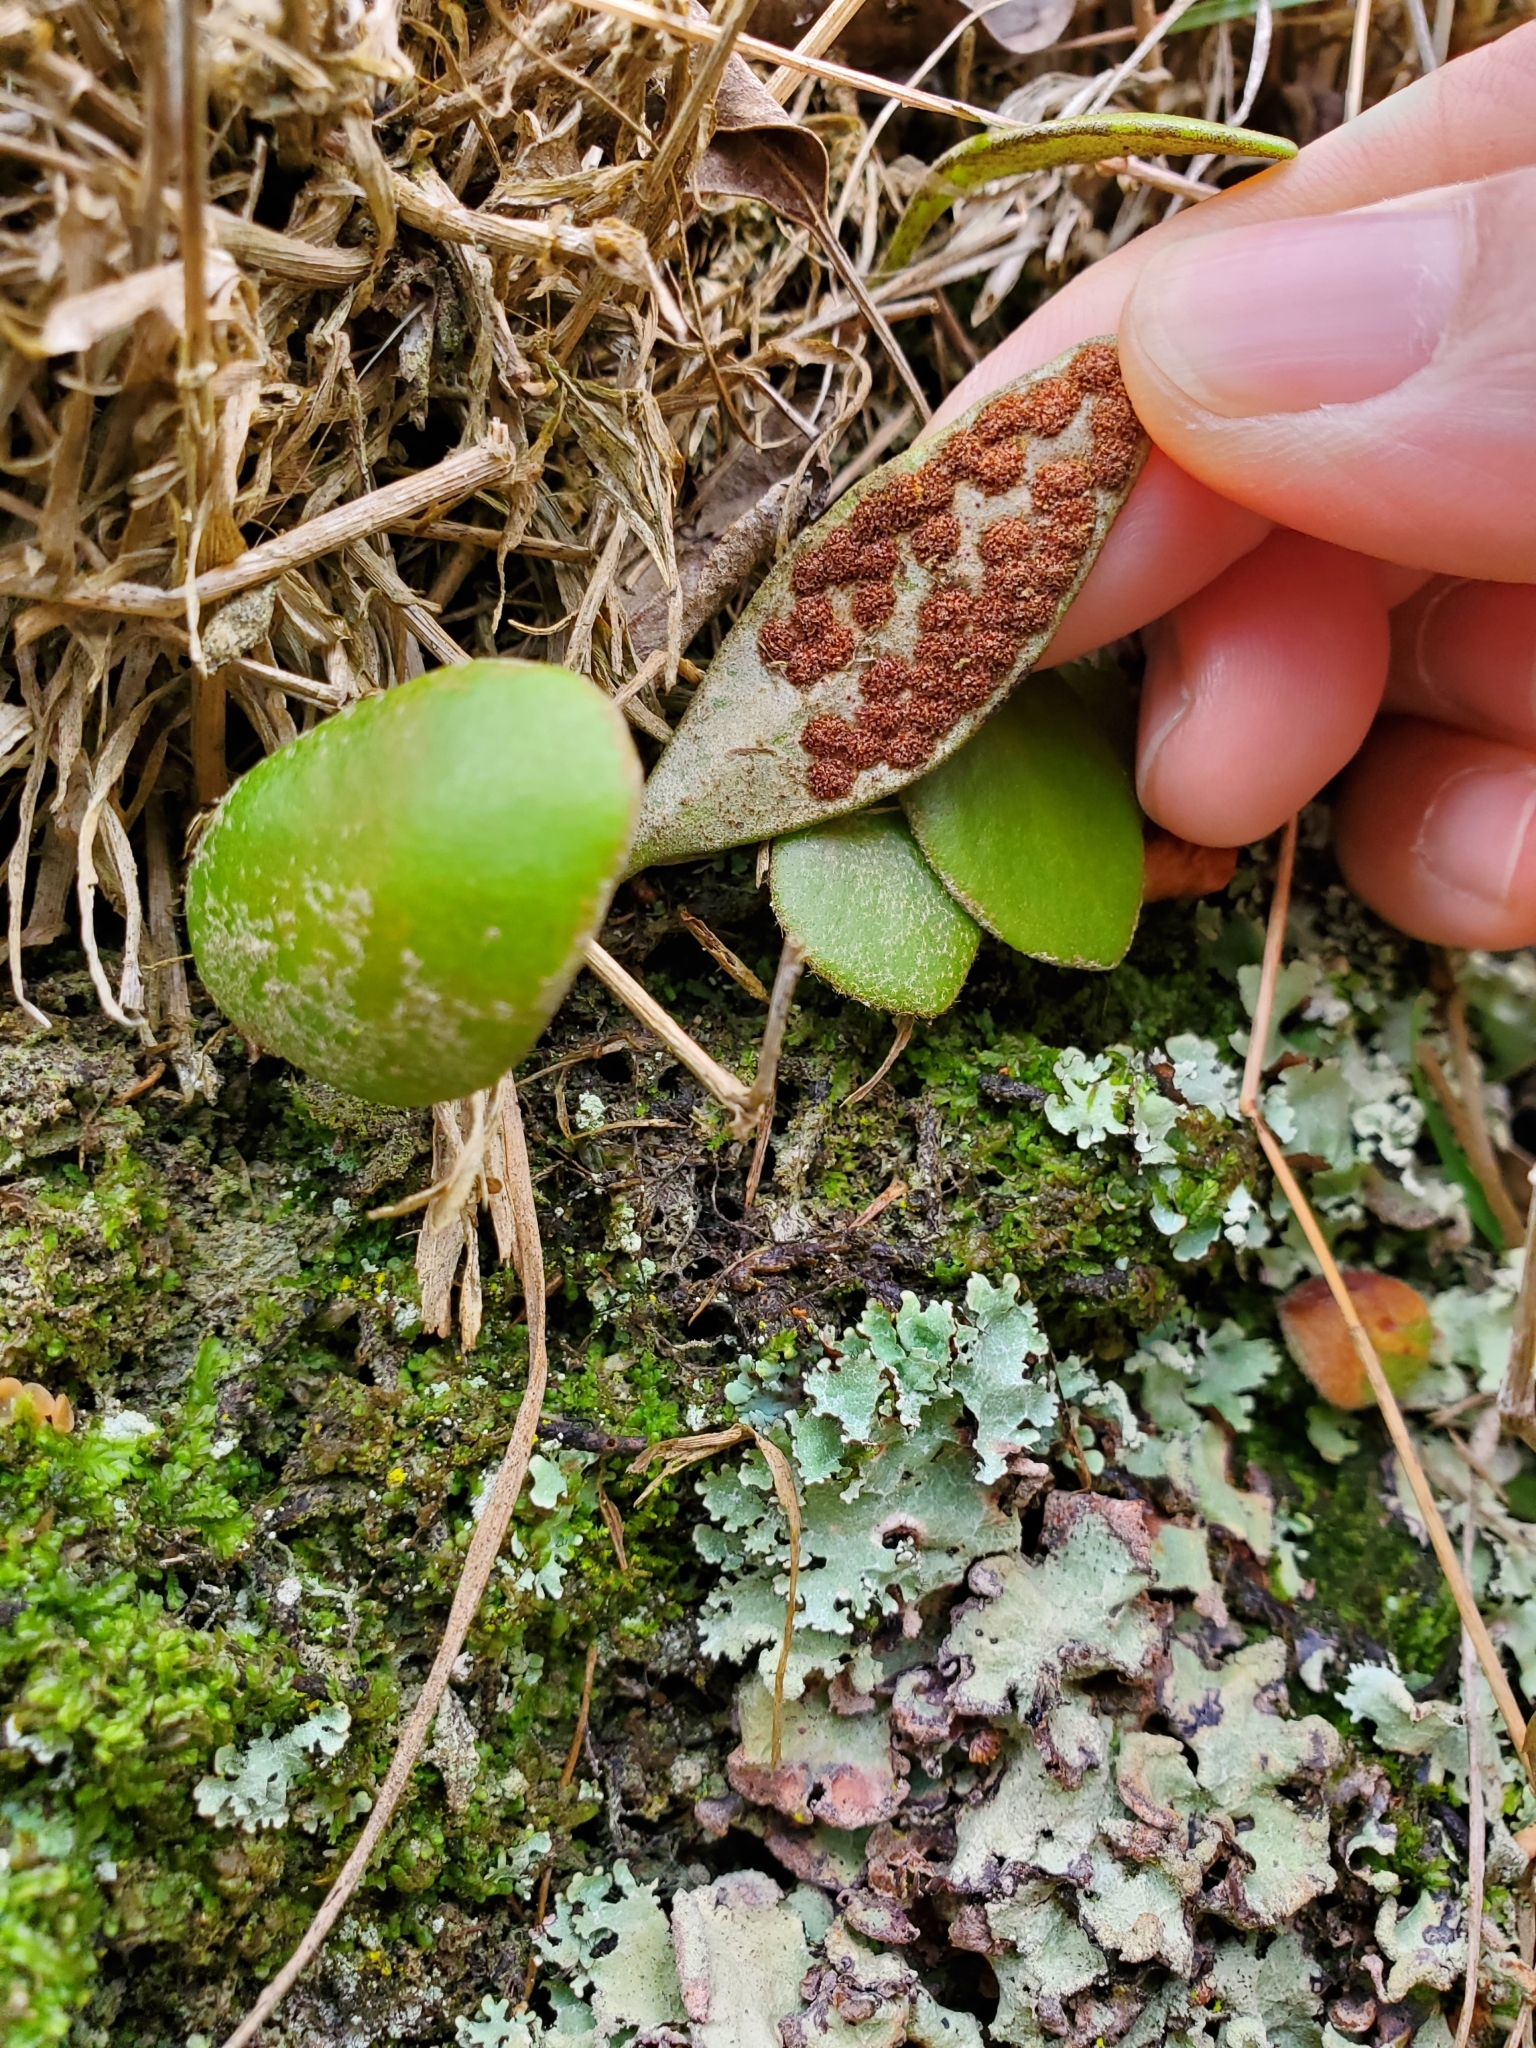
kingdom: Plantae
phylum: Tracheophyta
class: Polypodiopsida
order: Polypodiales
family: Polypodiaceae
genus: Pyrrosia
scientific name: Pyrrosia eleagnifolia
